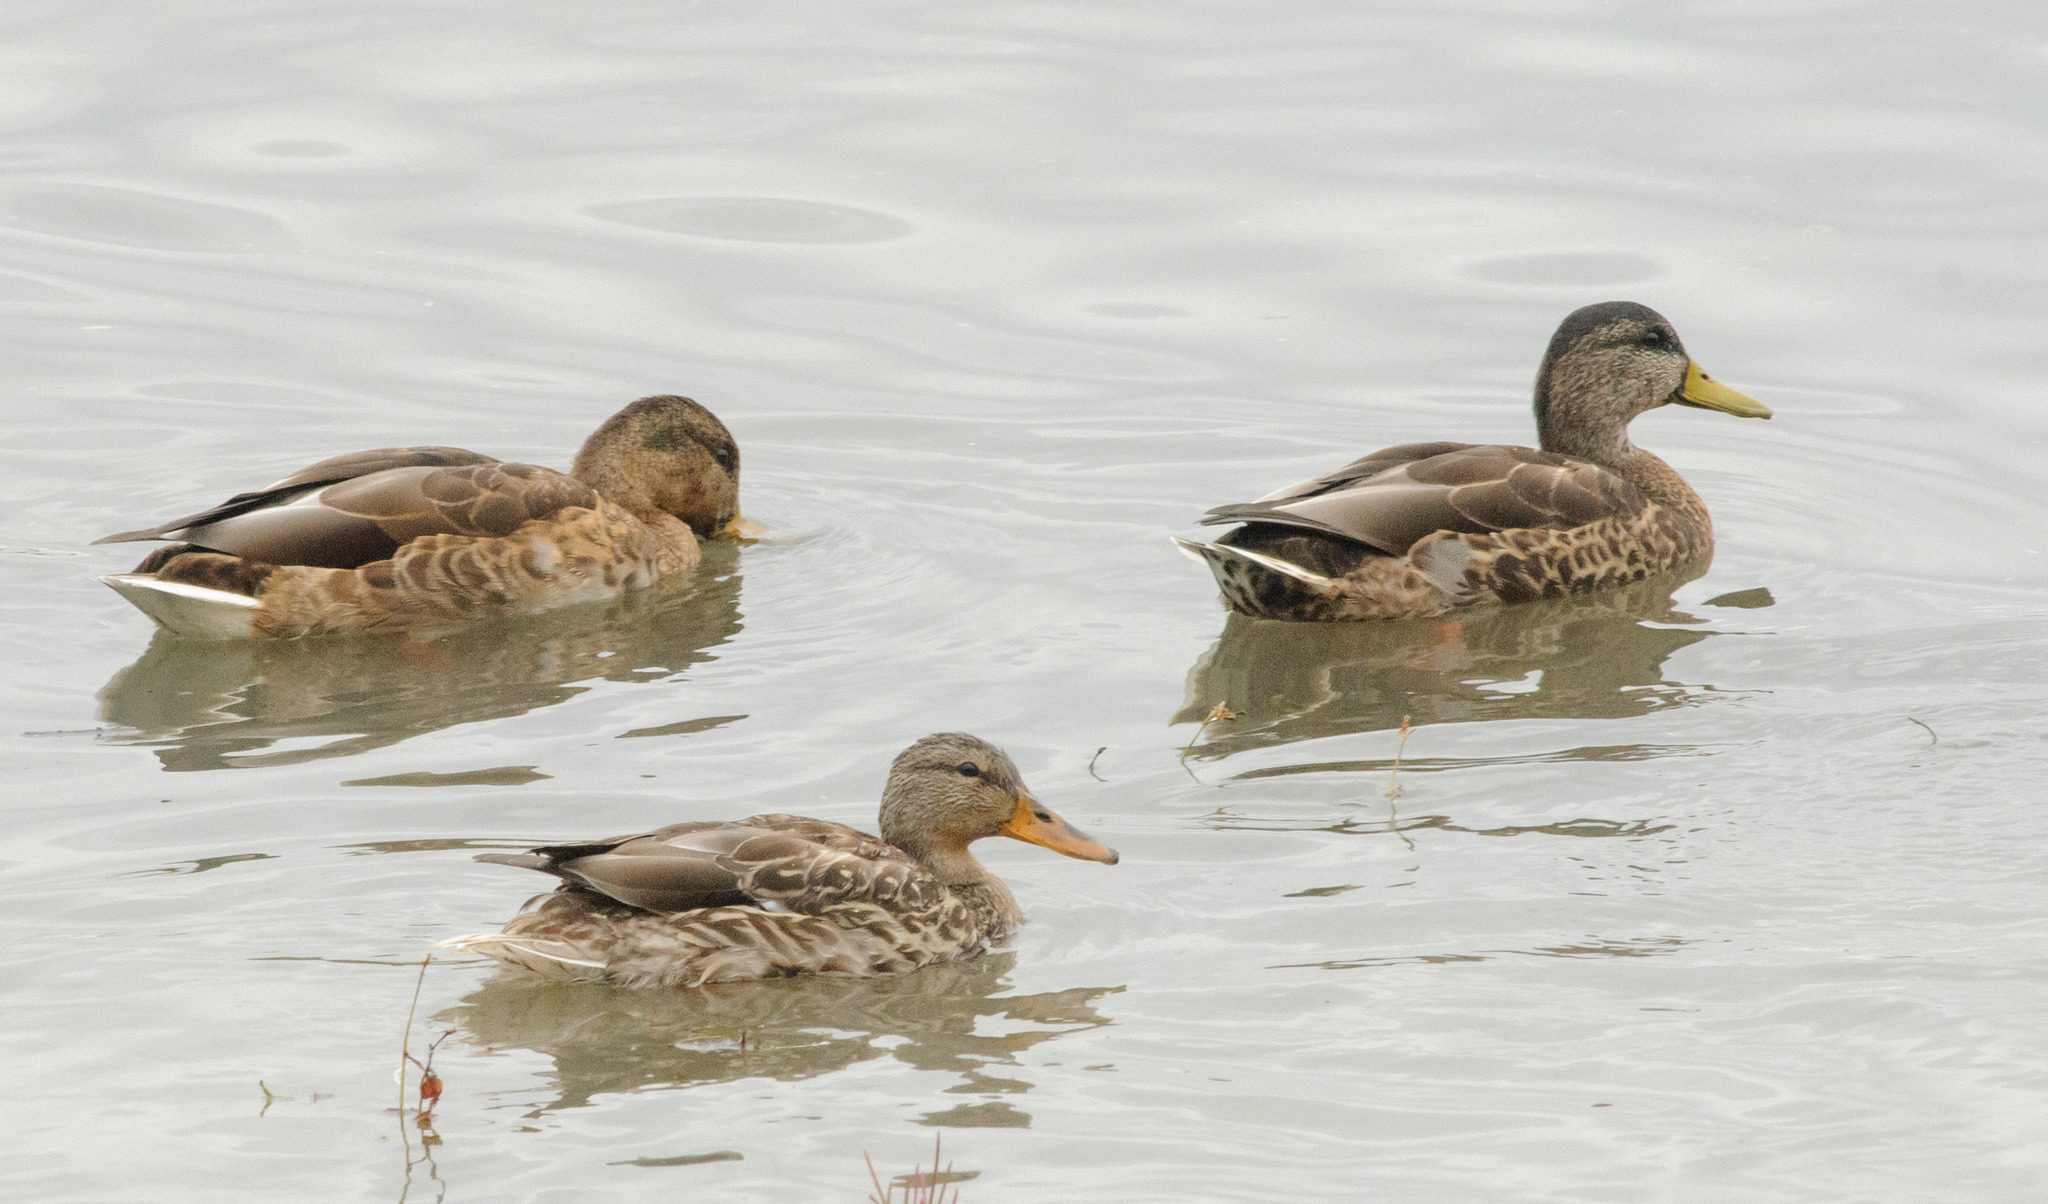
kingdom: Animalia
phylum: Chordata
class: Aves
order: Anseriformes
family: Anatidae
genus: Anas
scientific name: Anas platyrhynchos
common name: Mallard
